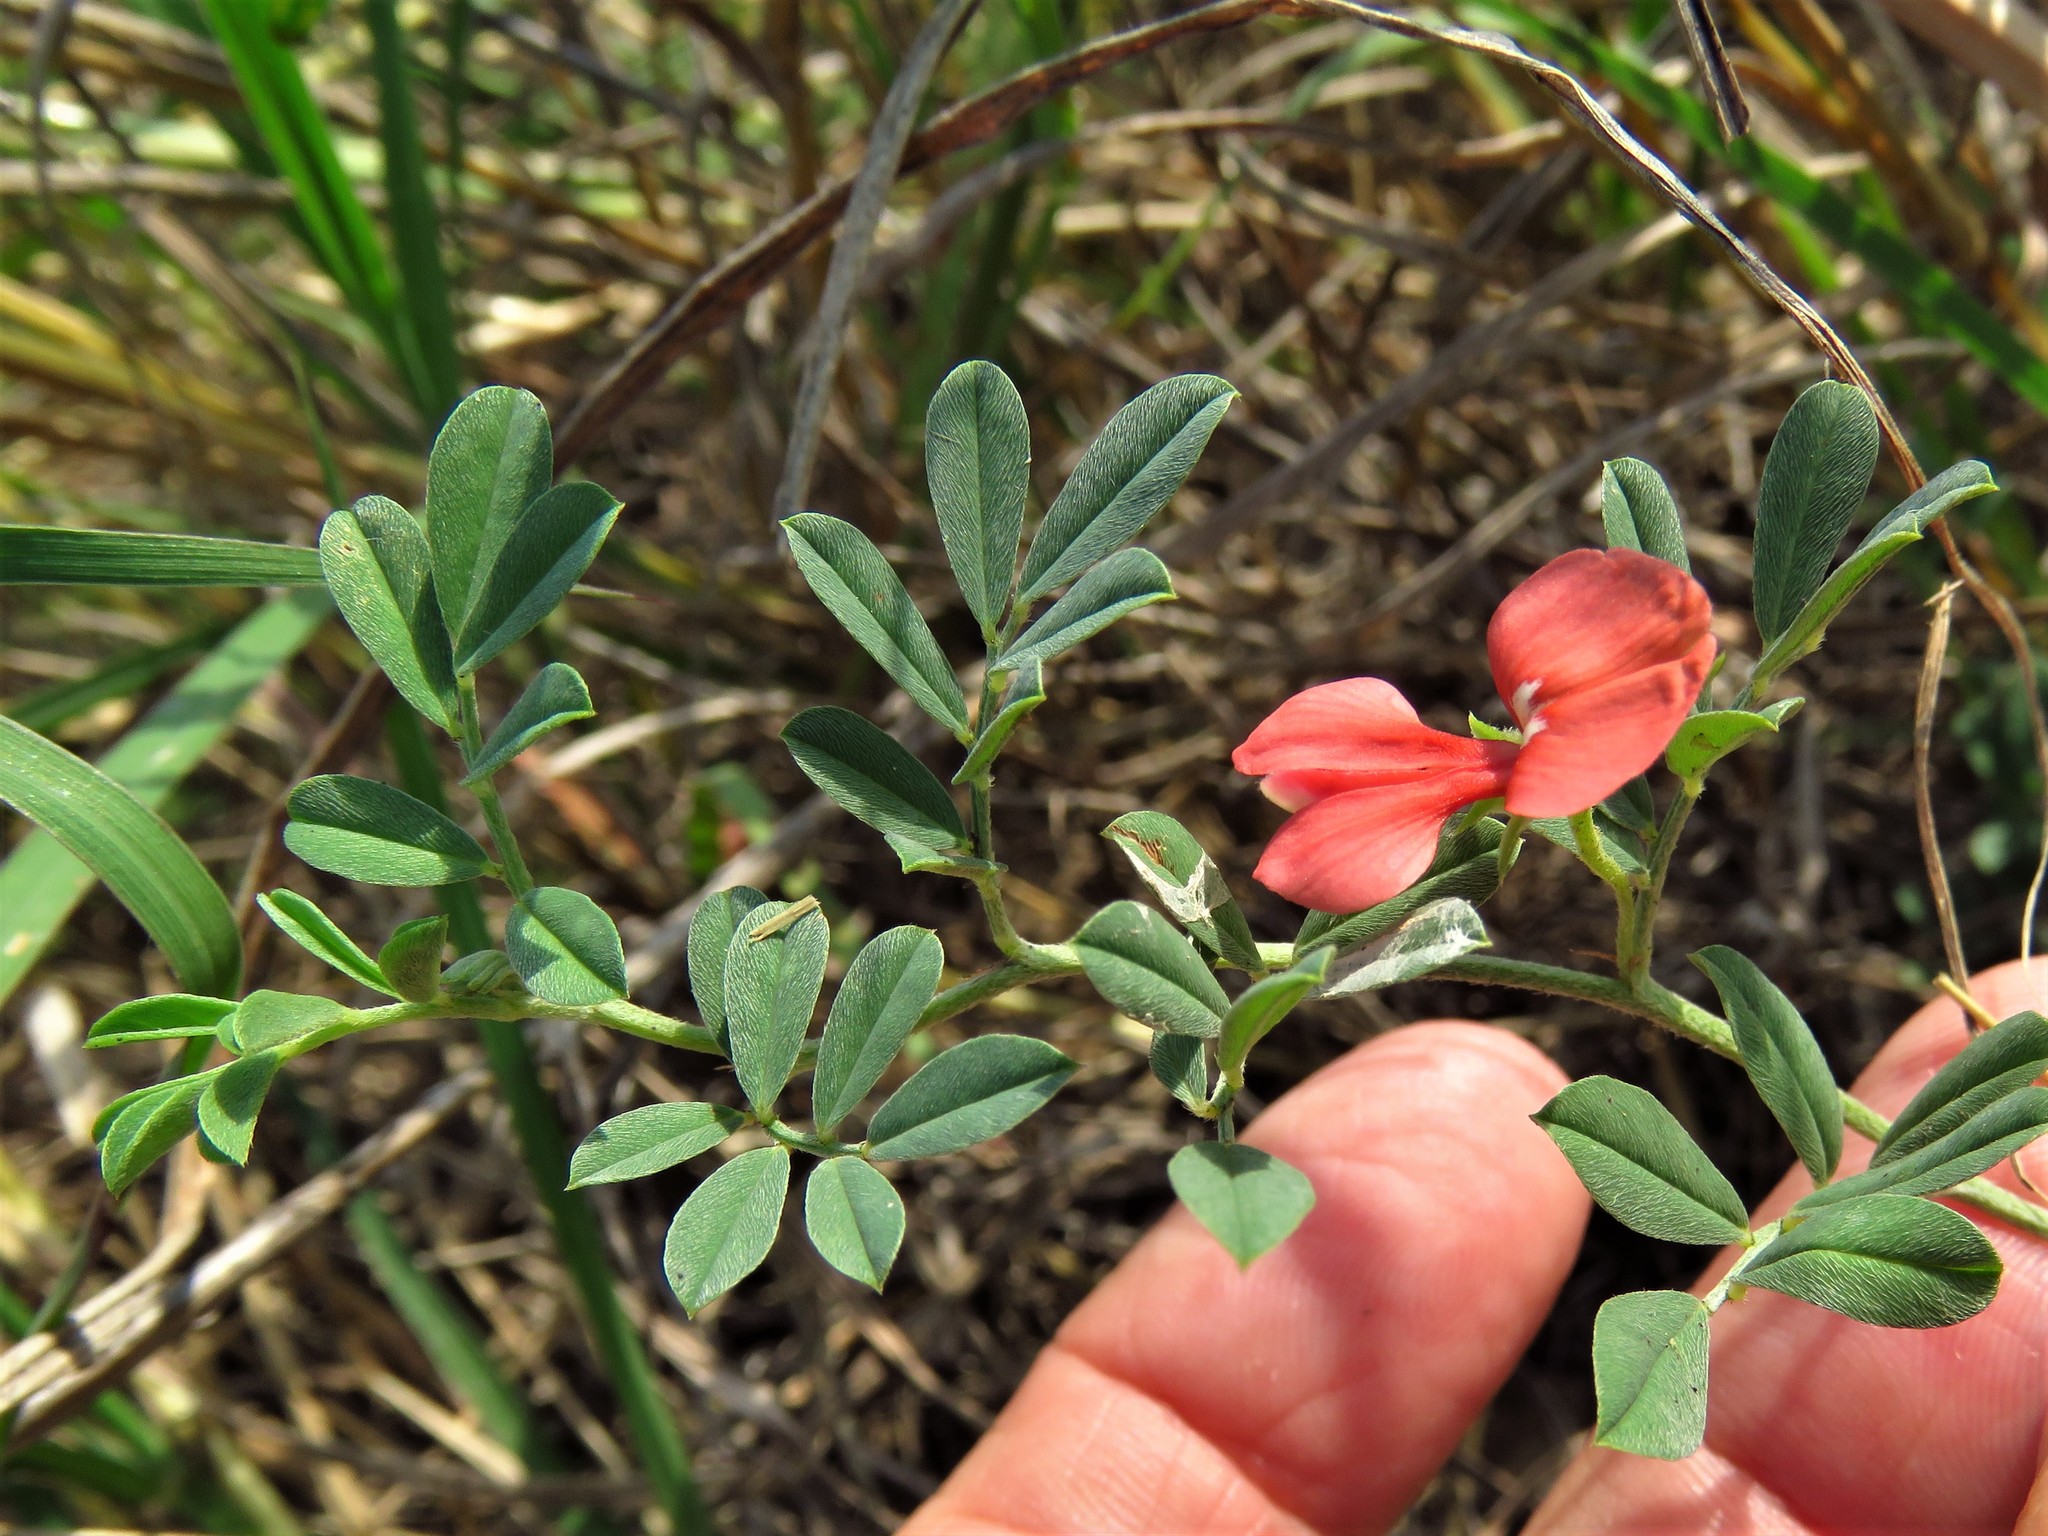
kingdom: Plantae
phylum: Tracheophyta
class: Magnoliopsida
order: Fabales
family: Fabaceae
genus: Indigofera
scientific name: Indigofera miniata
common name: Coast indigo
